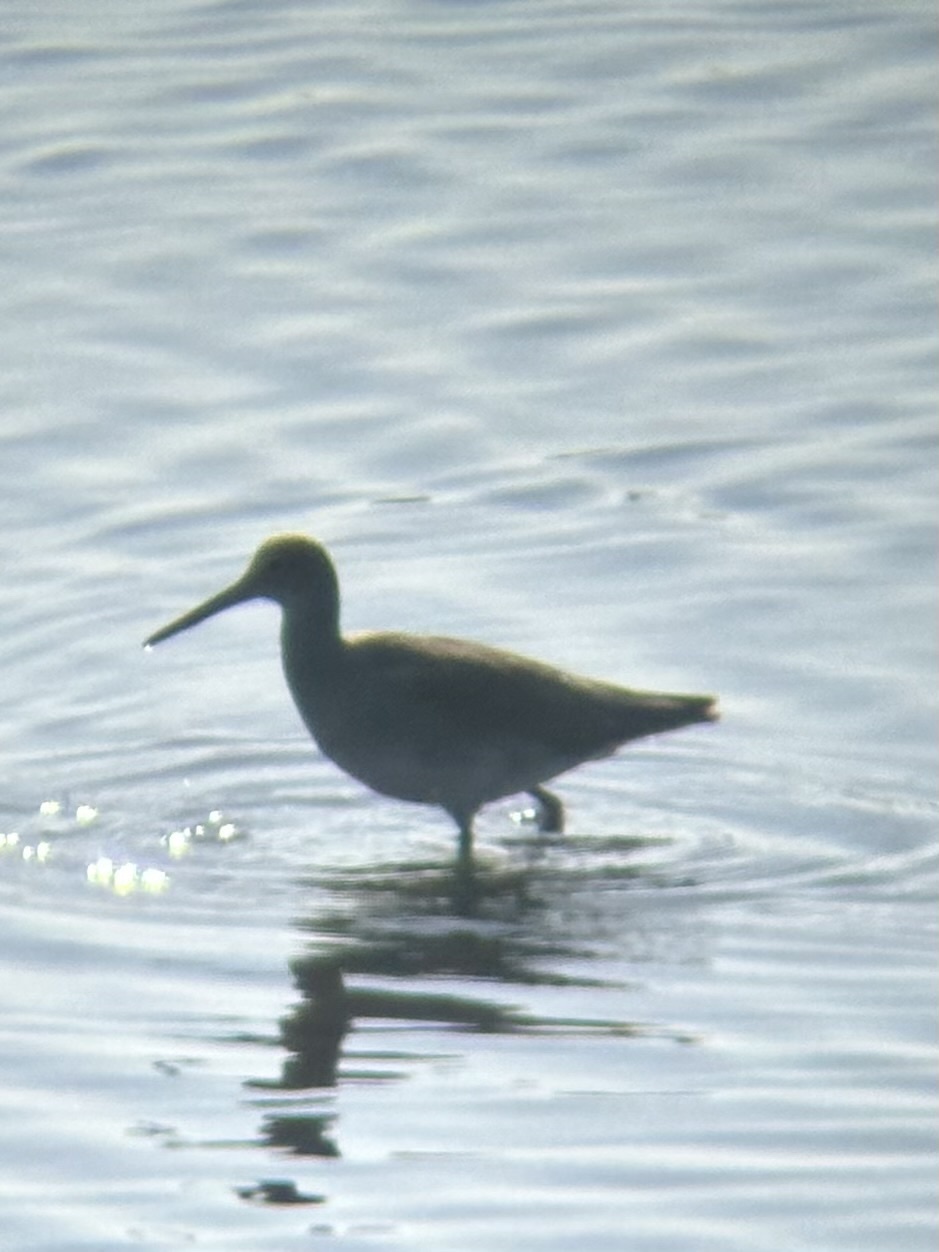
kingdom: Animalia
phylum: Chordata
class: Aves
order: Charadriiformes
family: Scolopacidae
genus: Tringa
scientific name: Tringa semipalmata
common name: Willet
